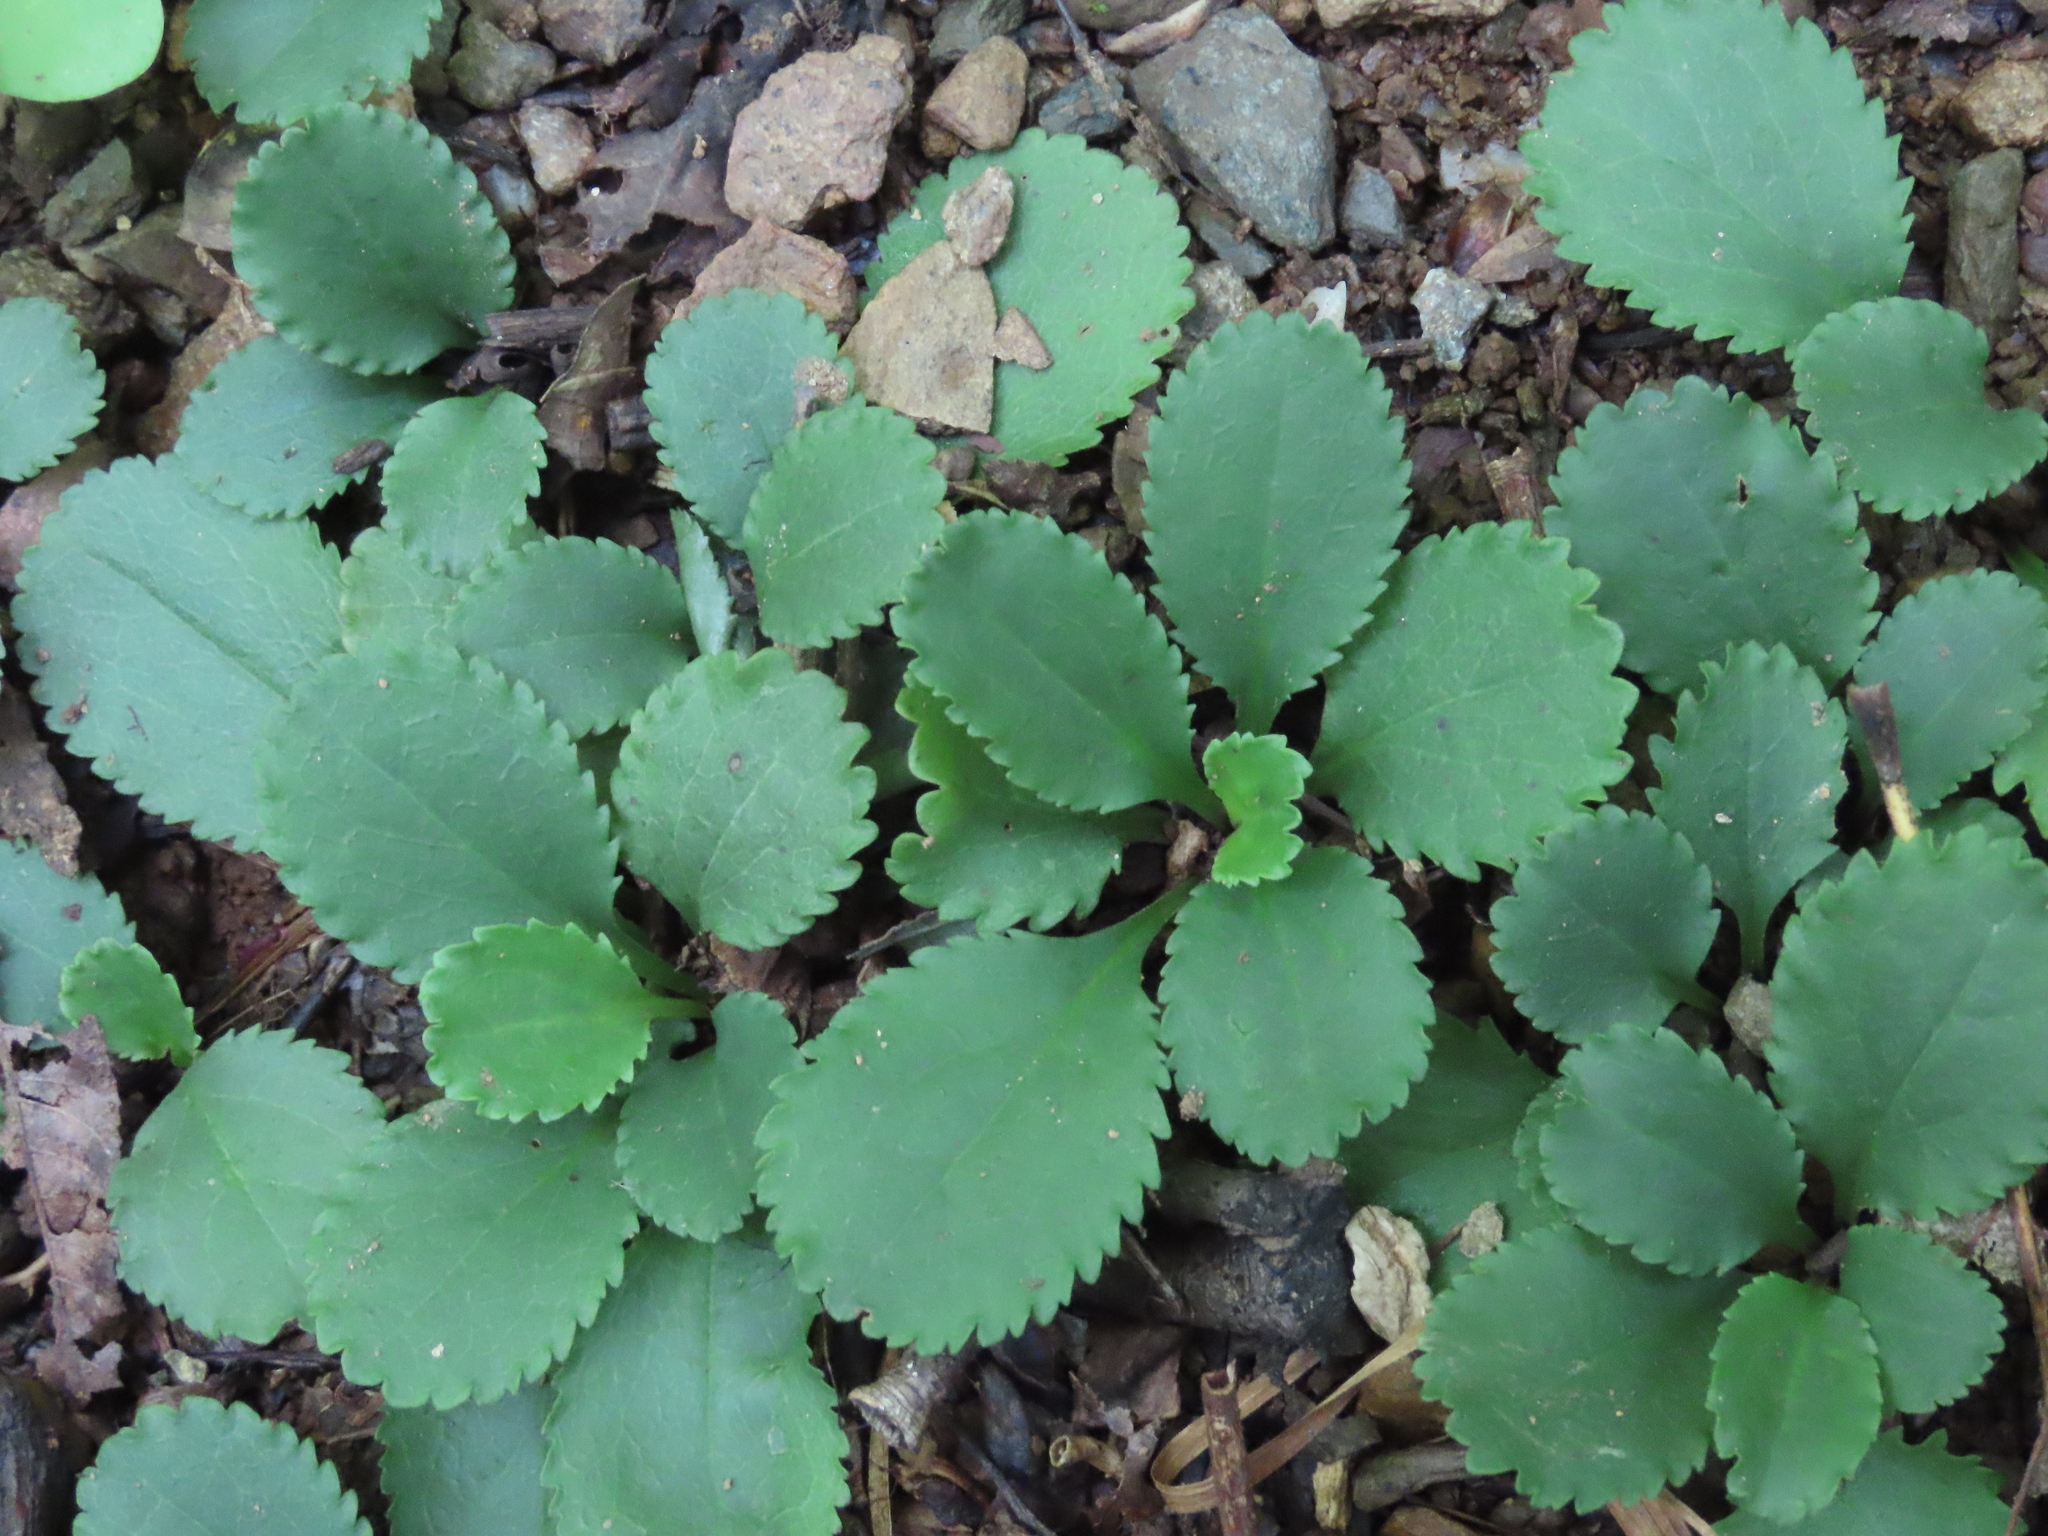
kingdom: Plantae
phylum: Tracheophyta
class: Magnoliopsida
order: Asterales
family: Asteraceae
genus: Packera
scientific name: Packera obovata
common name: Round-leaf ragwort
